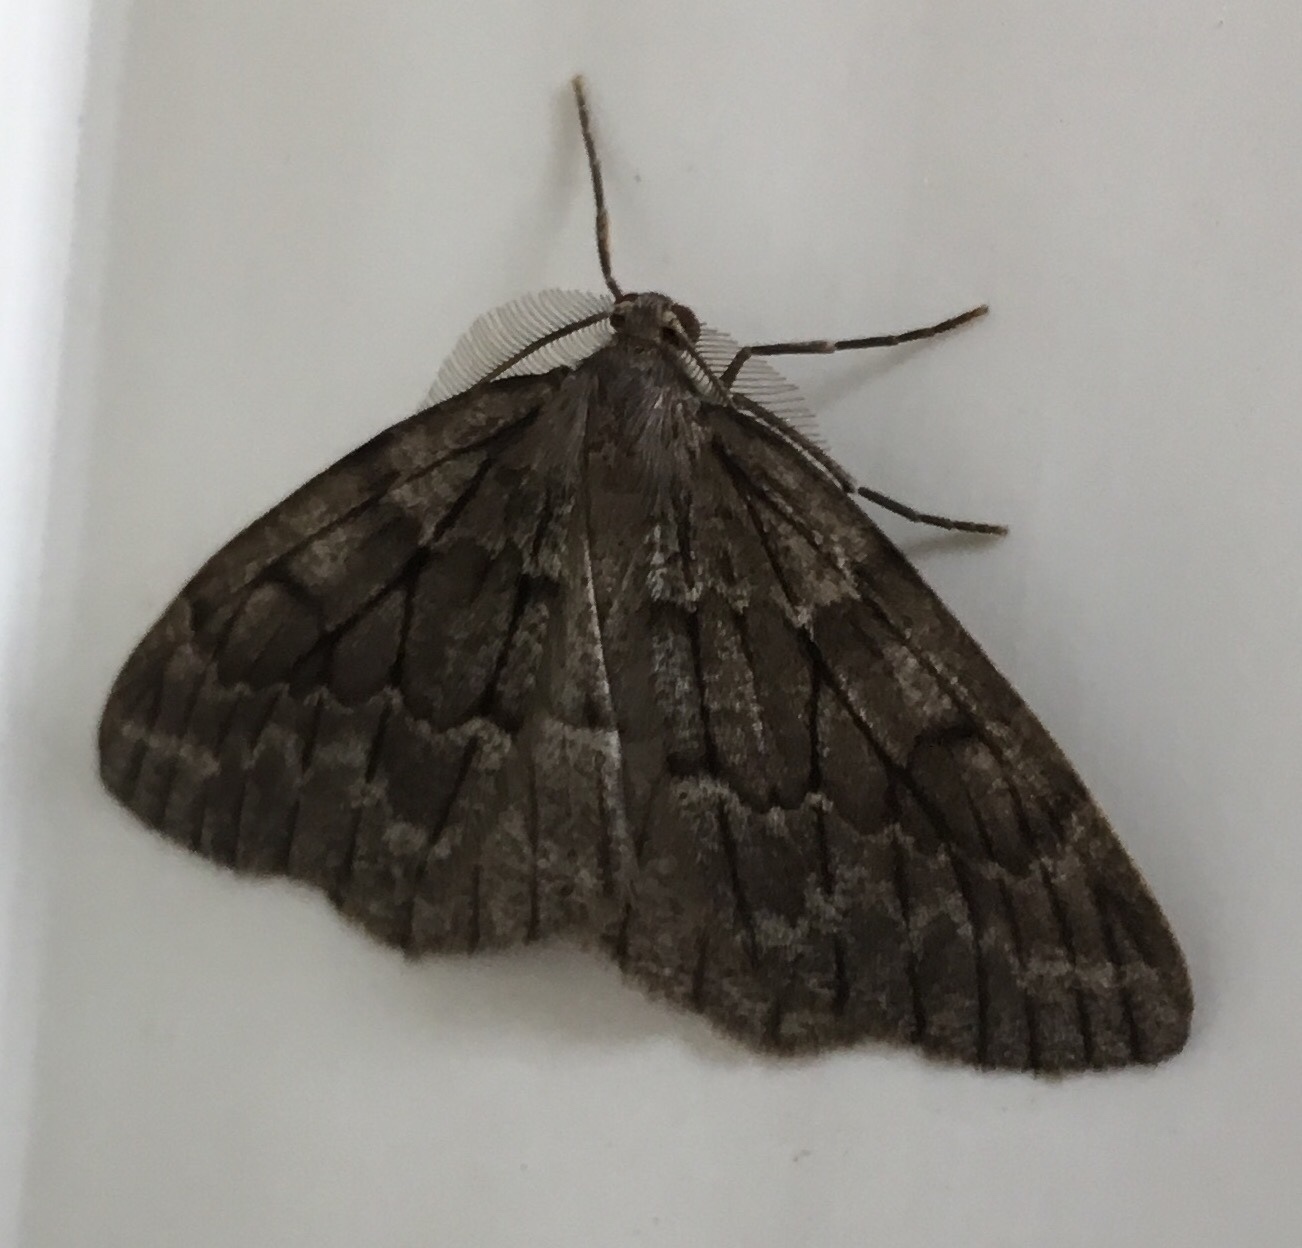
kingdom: Animalia
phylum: Arthropoda
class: Insecta
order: Lepidoptera
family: Geometridae
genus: Nepytia
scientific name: Nepytia umbrosaria
